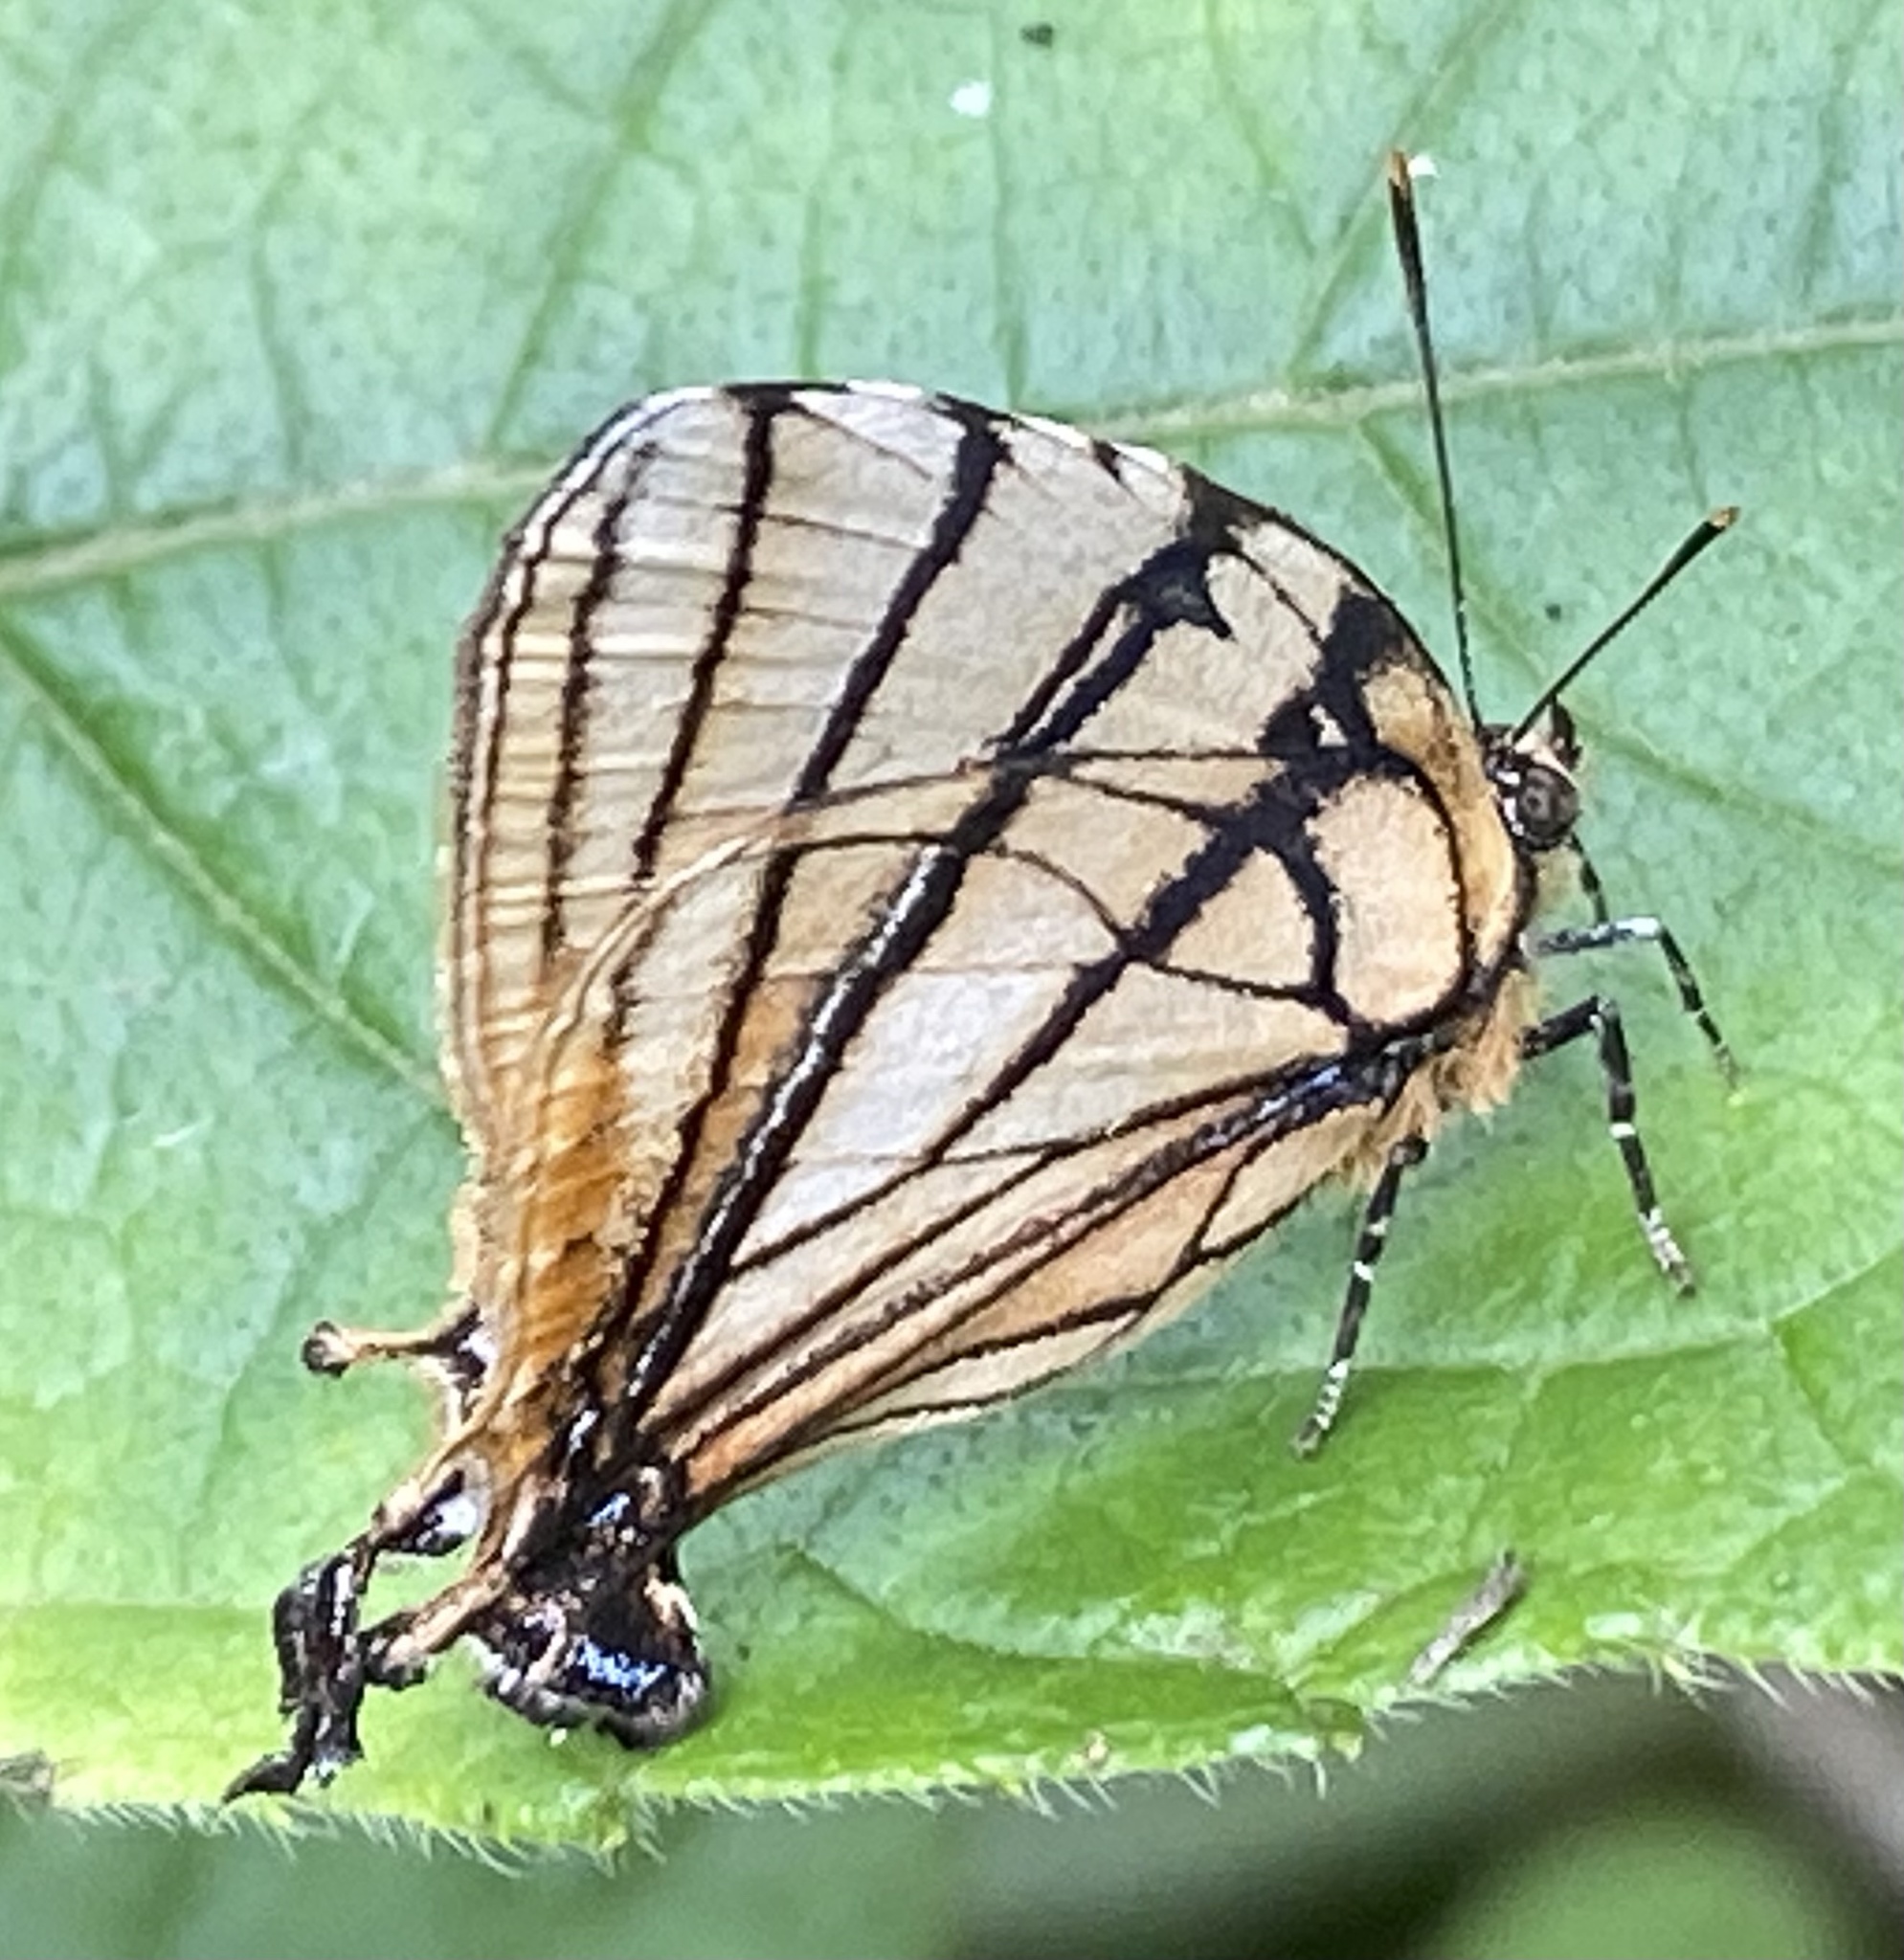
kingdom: Animalia
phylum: Arthropoda
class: Insecta
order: Lepidoptera
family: Lycaenidae
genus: Arawacus
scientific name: Arawacus melibaeus
